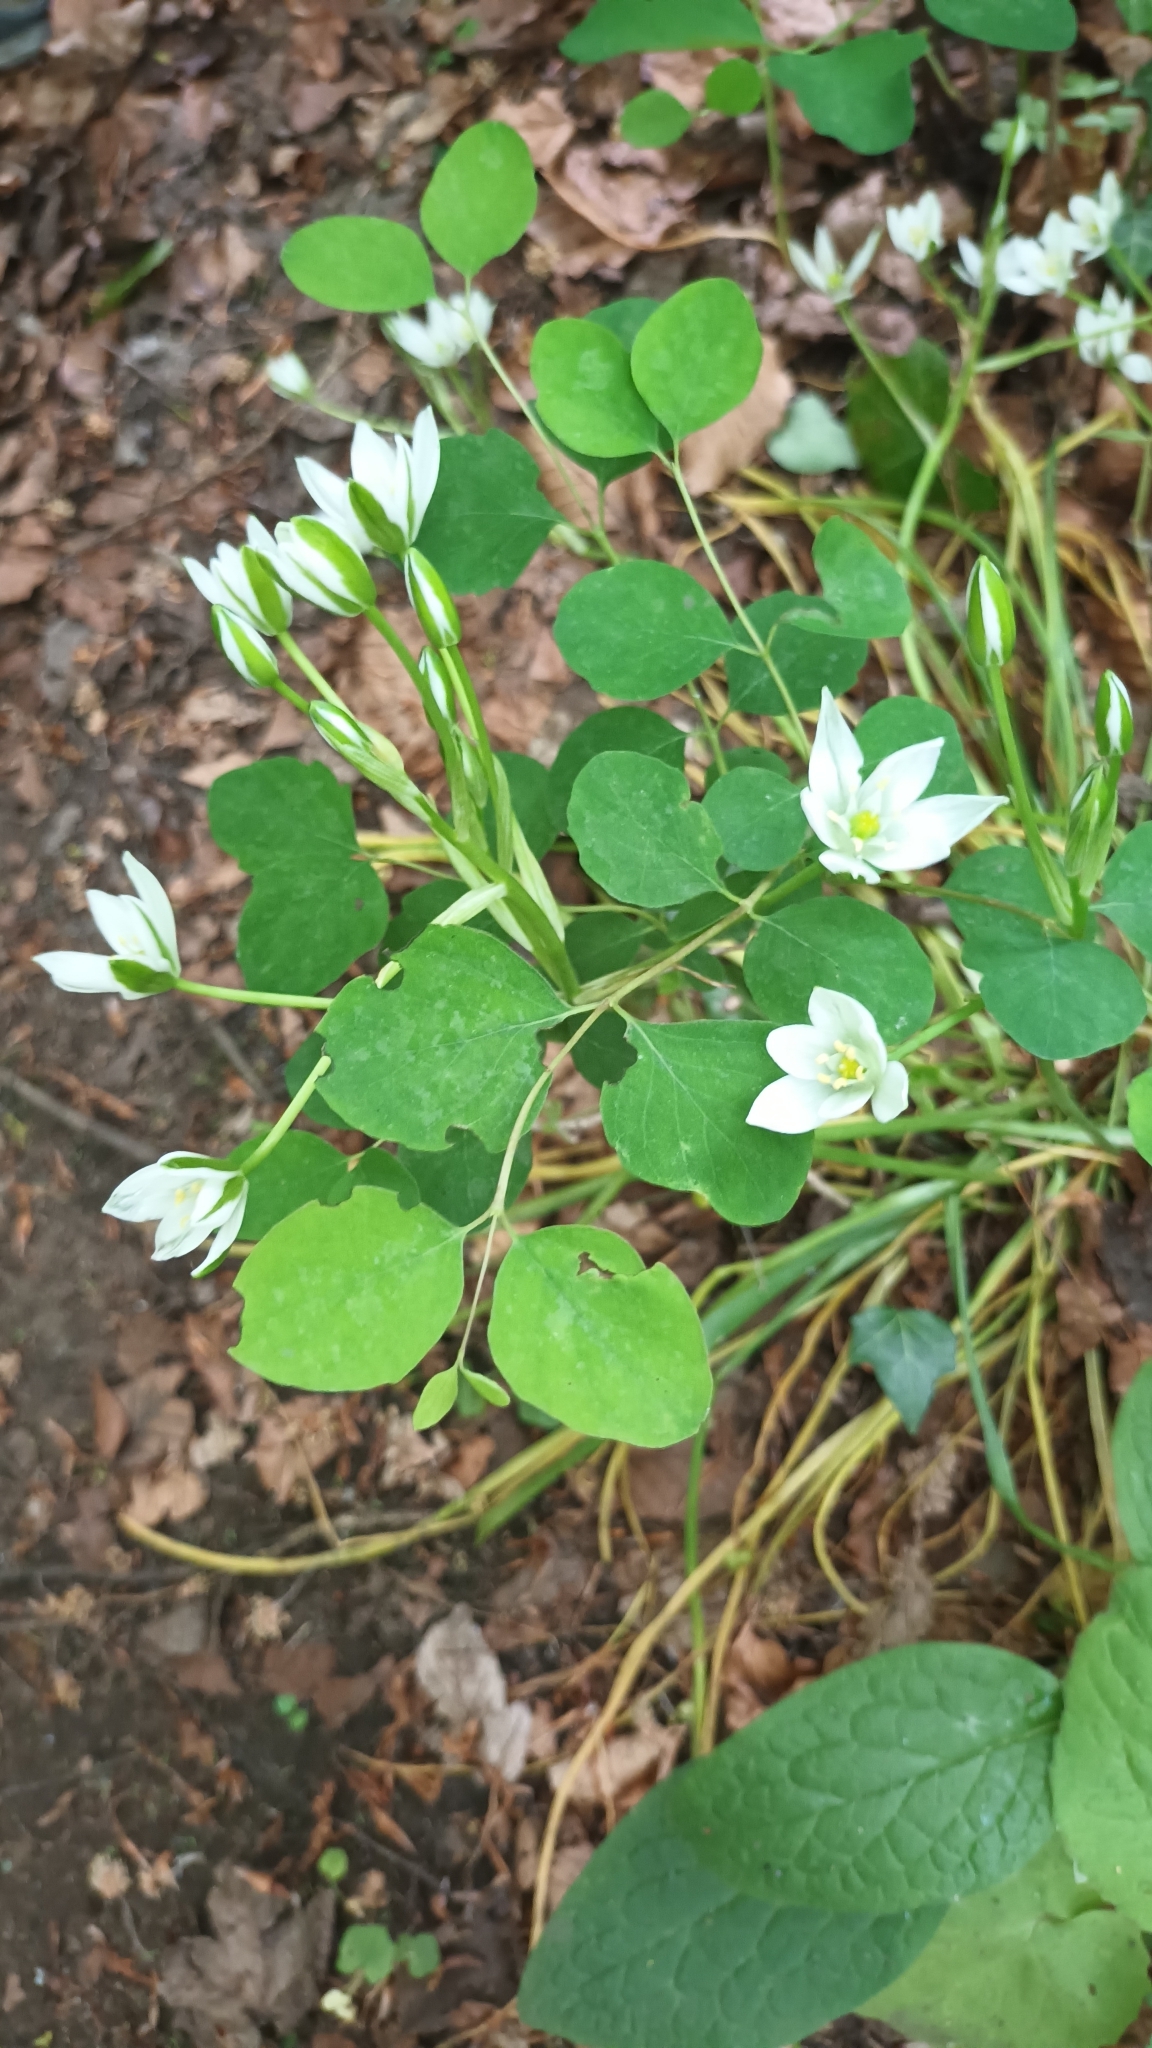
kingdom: Plantae
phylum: Tracheophyta
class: Liliopsida
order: Asparagales
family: Asparagaceae
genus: Ornithogalum
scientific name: Ornithogalum umbellatum
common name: Garden star-of-bethlehem
